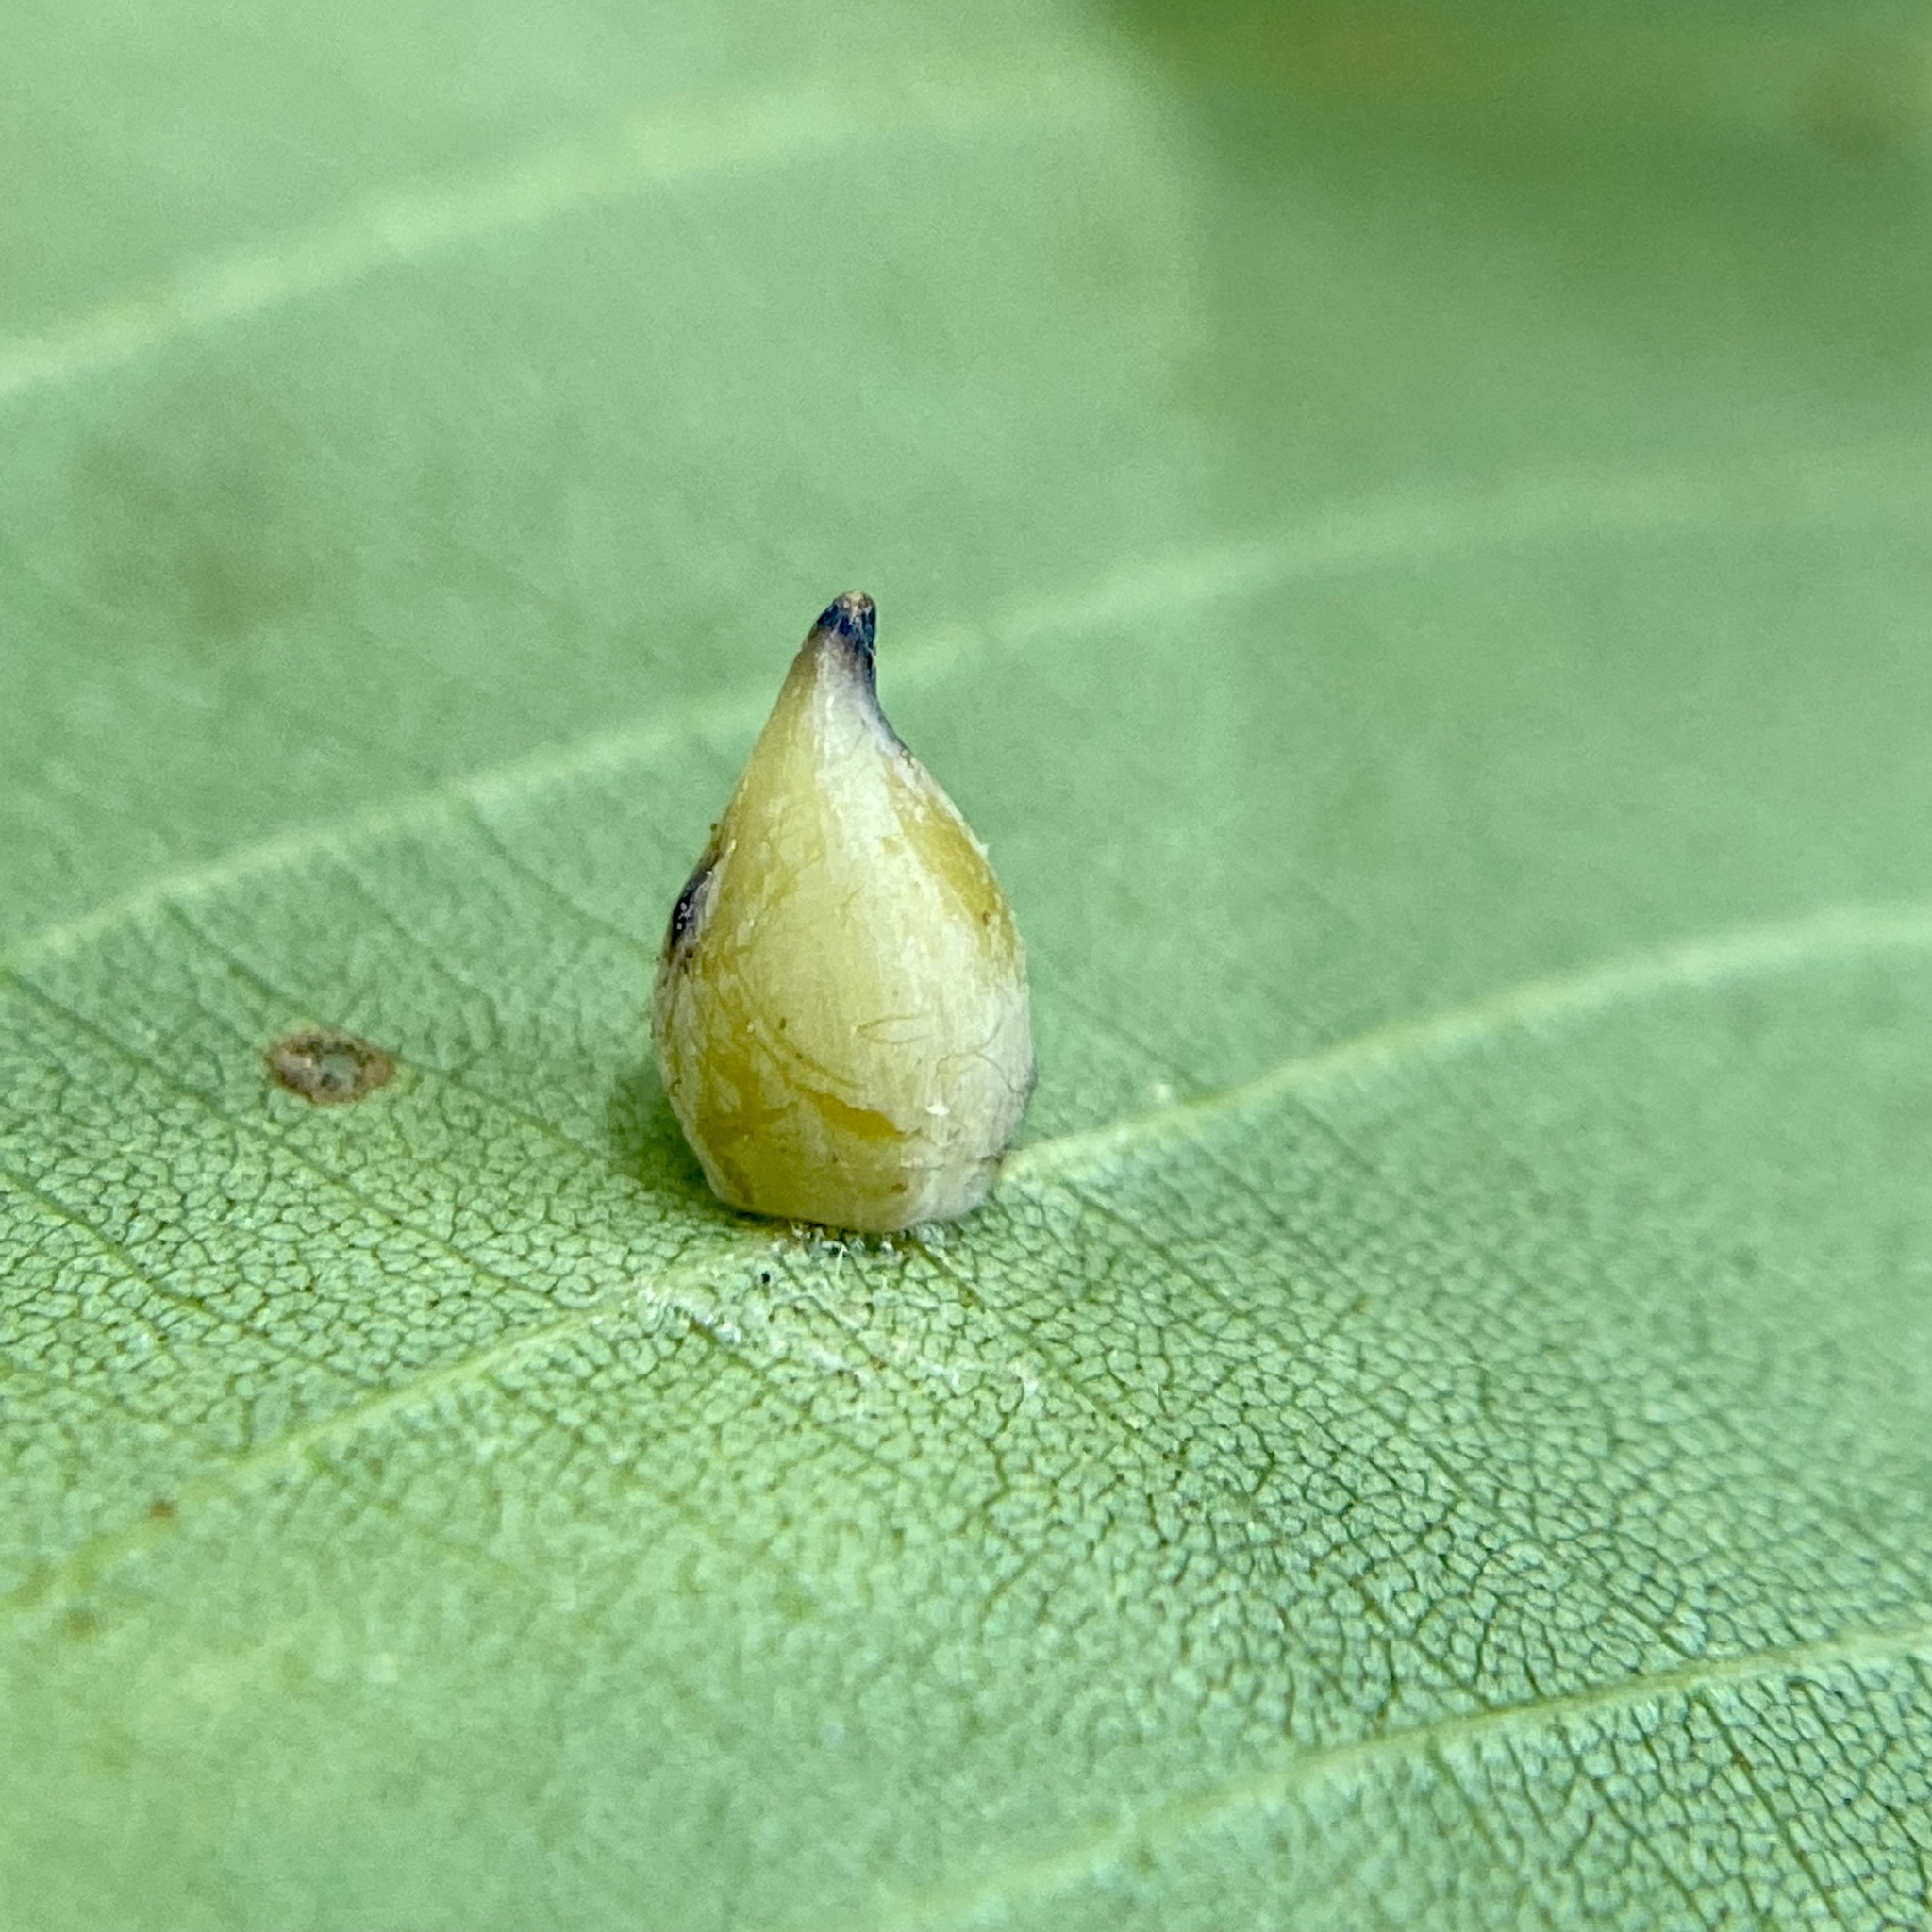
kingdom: Animalia
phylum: Arthropoda
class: Insecta
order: Diptera
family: Cecidomyiidae
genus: Caryomyia
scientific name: Caryomyia caryaecola
